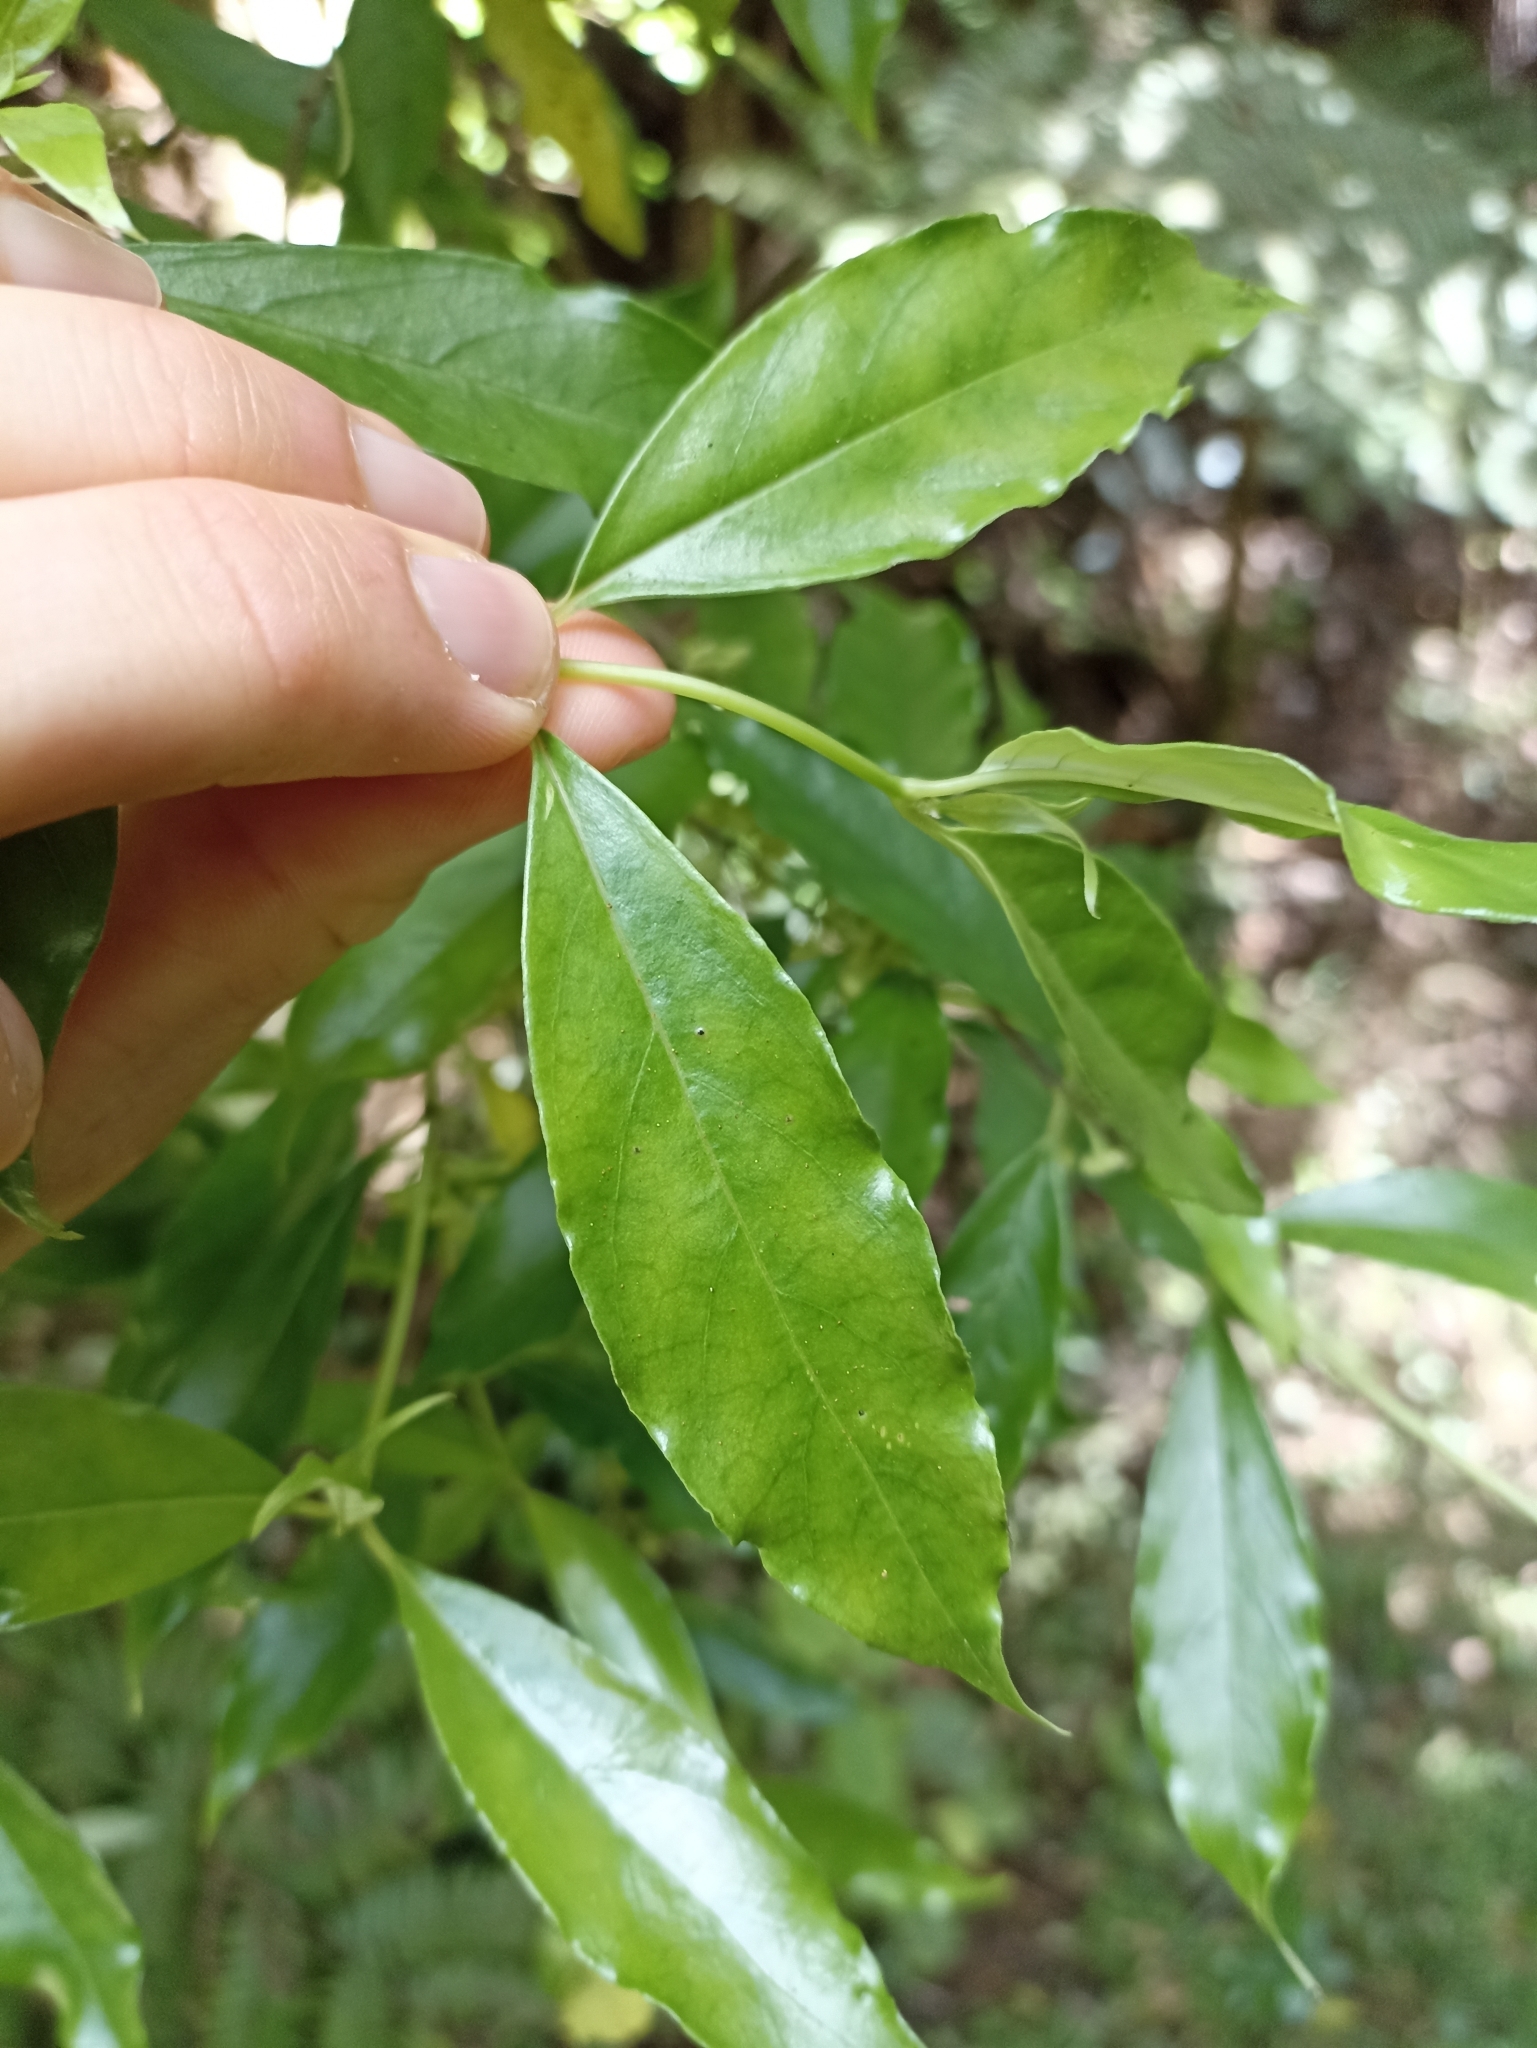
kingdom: Plantae
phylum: Tracheophyta
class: Magnoliopsida
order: Gentianales
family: Loganiaceae
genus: Geniostoma
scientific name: Geniostoma ligustrifolium
